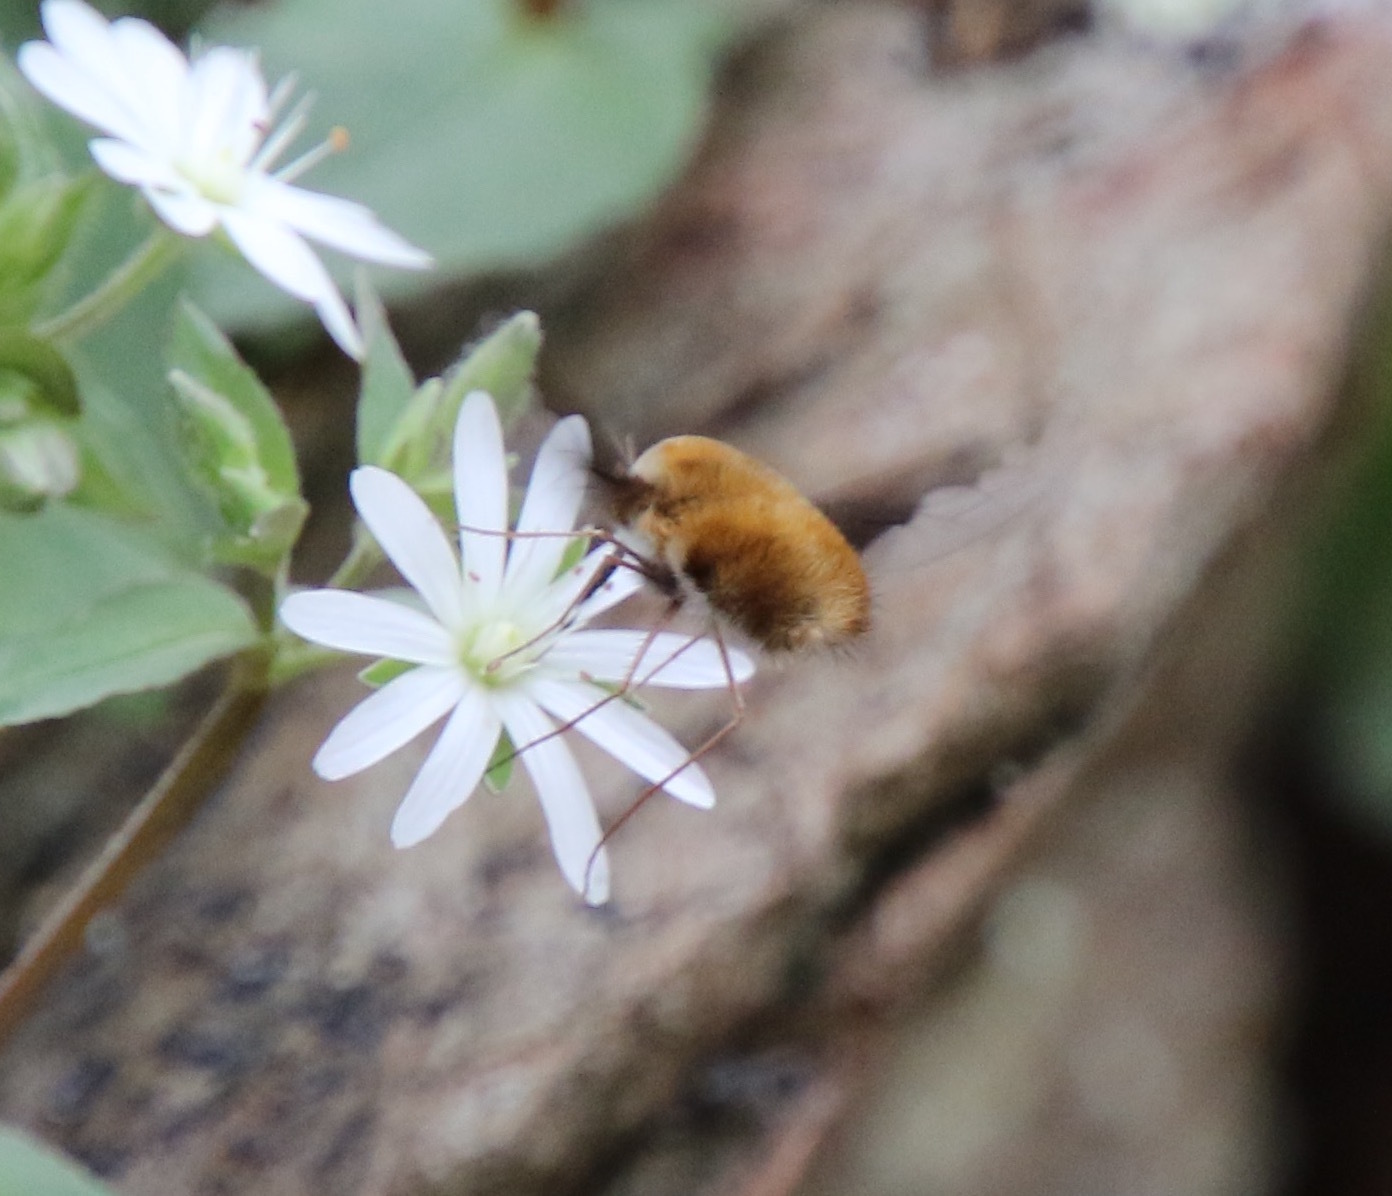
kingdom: Animalia
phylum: Arthropoda
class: Insecta
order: Diptera
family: Bombyliidae
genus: Bombylius
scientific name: Bombylius major
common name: Bee fly
